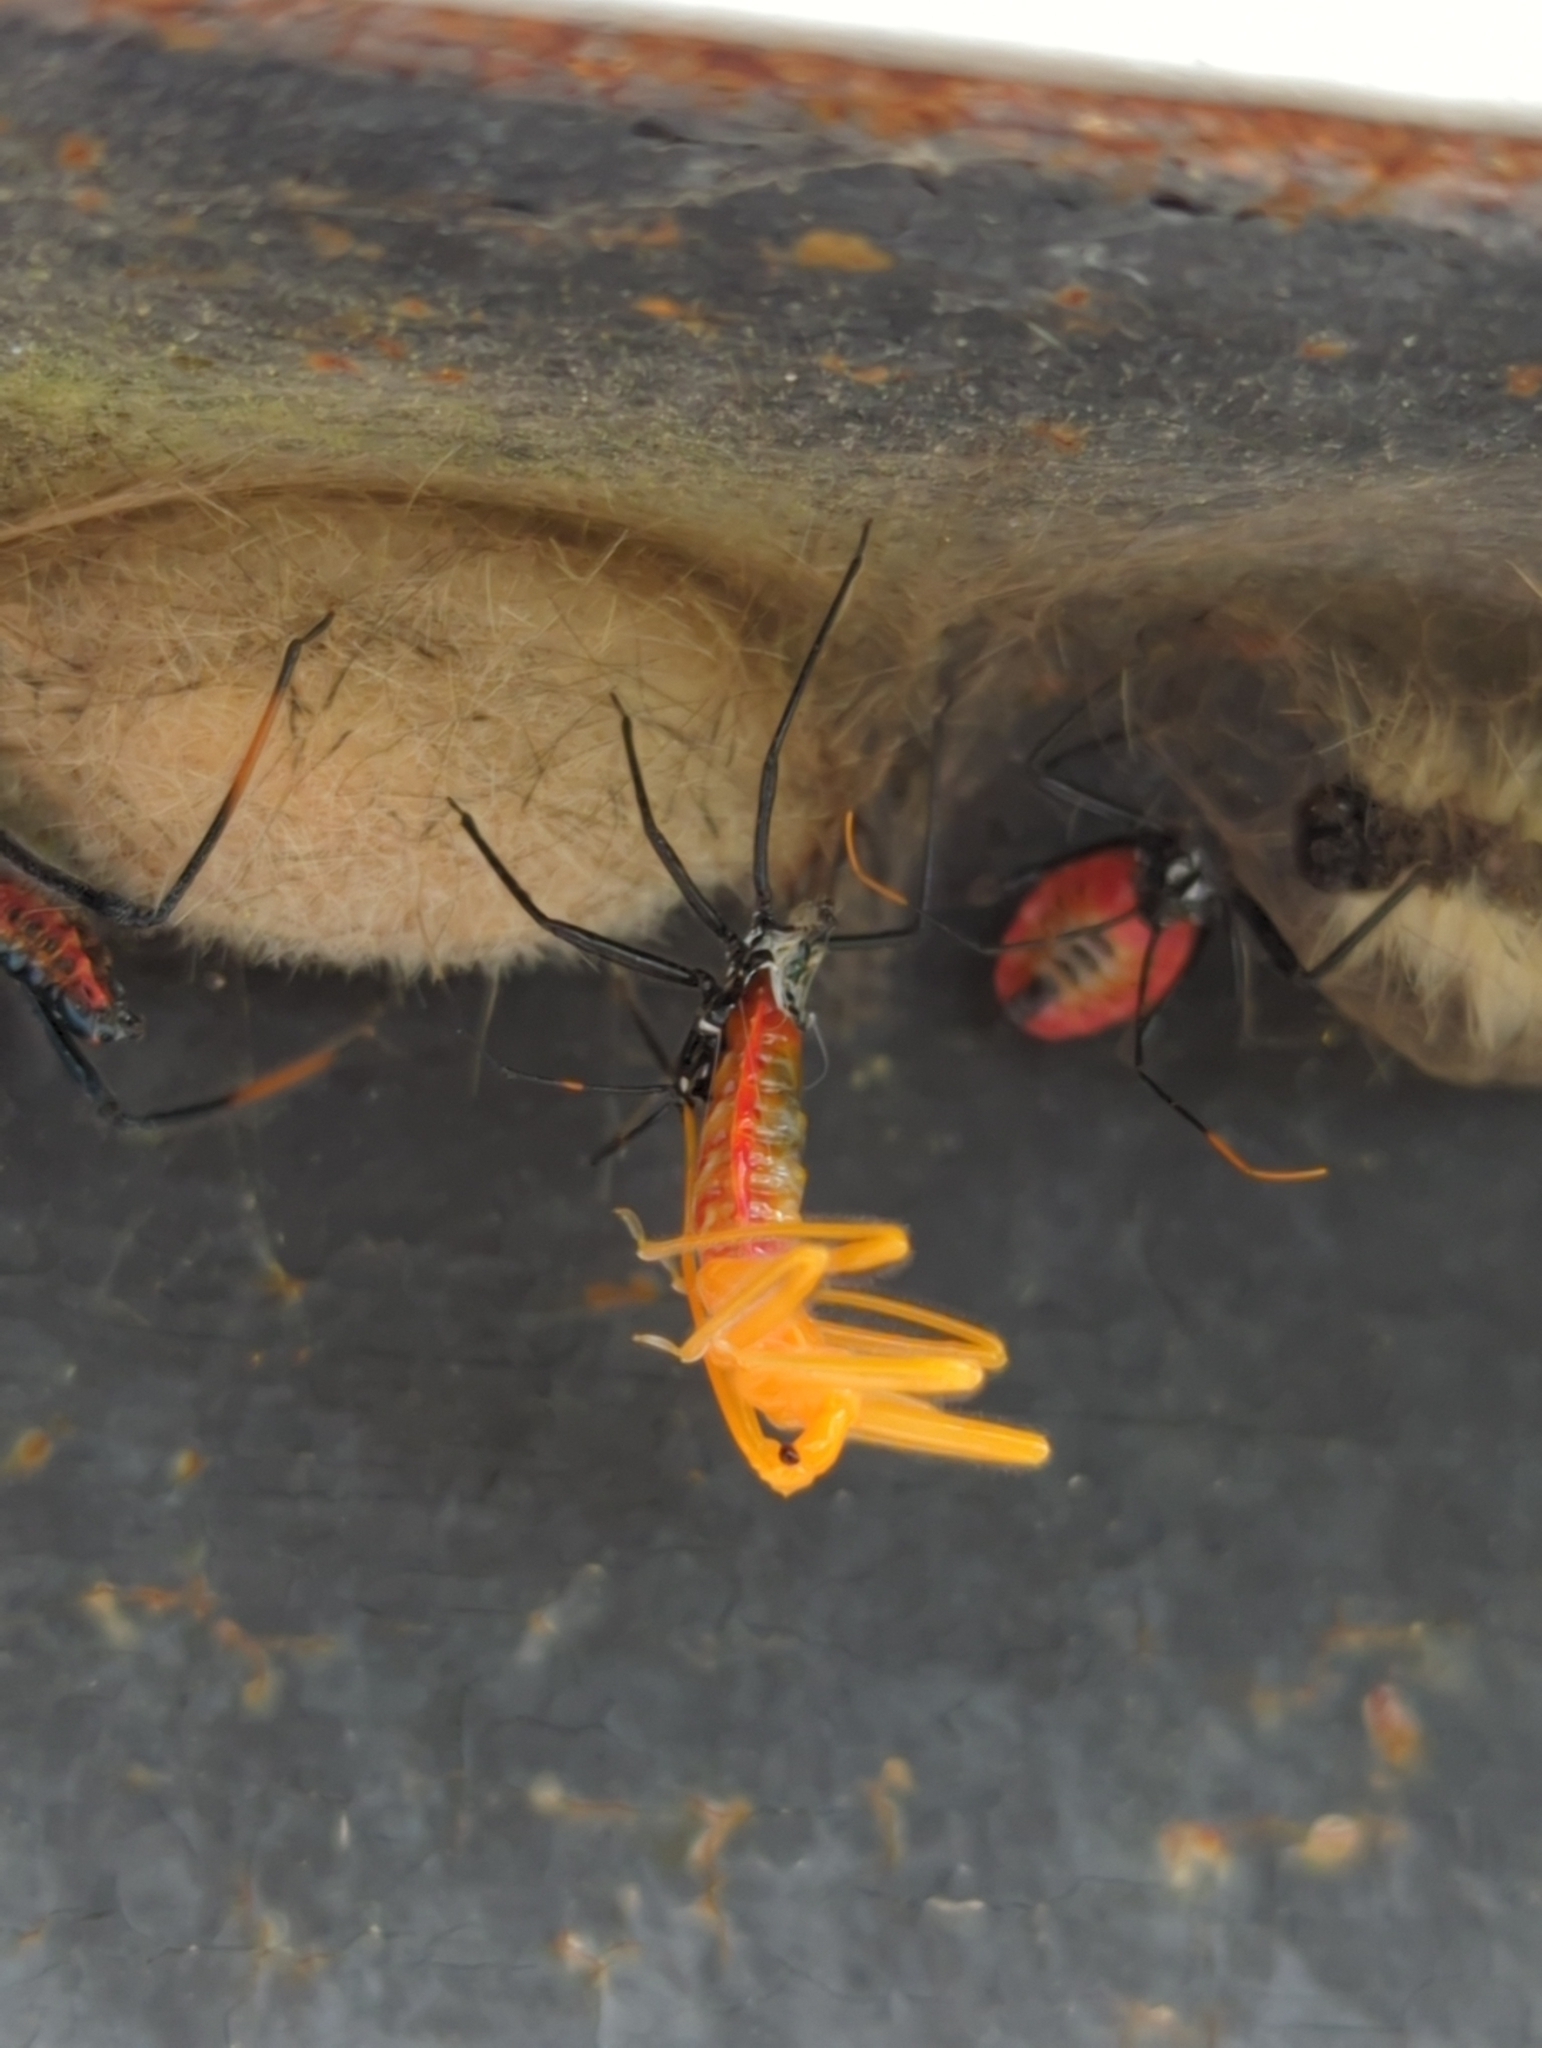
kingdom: Animalia
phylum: Arthropoda
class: Insecta
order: Hemiptera
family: Reduviidae
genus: Arilus
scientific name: Arilus cristatus
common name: North american wheel bug
